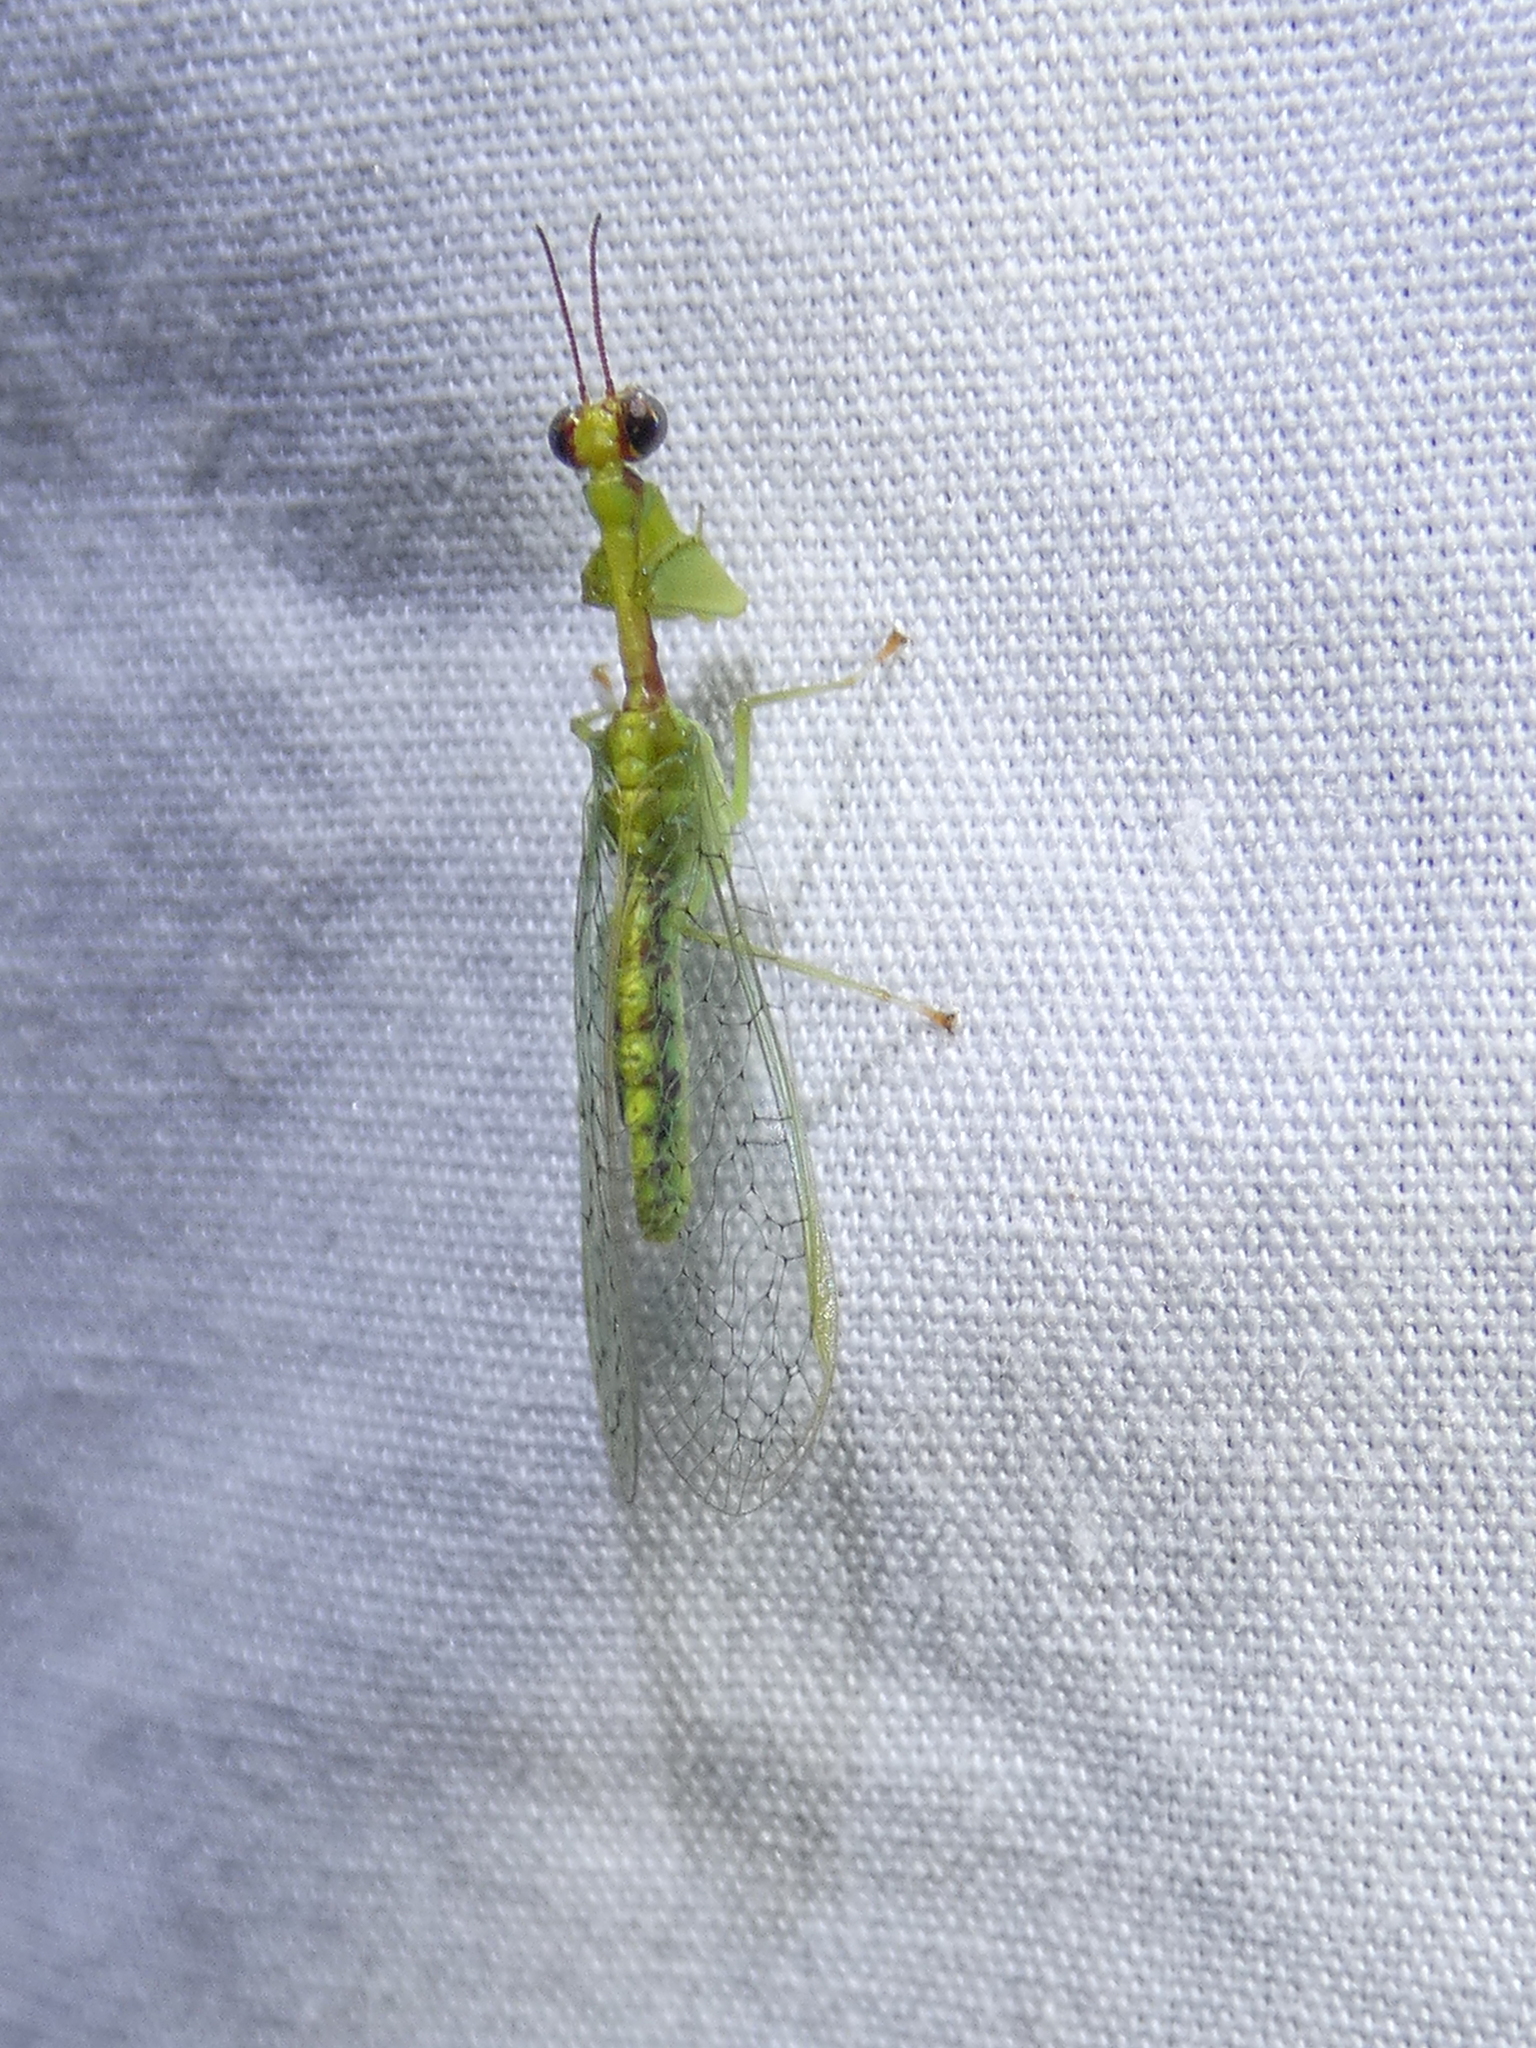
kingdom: Animalia
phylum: Arthropoda
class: Insecta
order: Neuroptera
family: Mantispidae
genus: Zeugomantispa
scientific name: Zeugomantispa minuta
